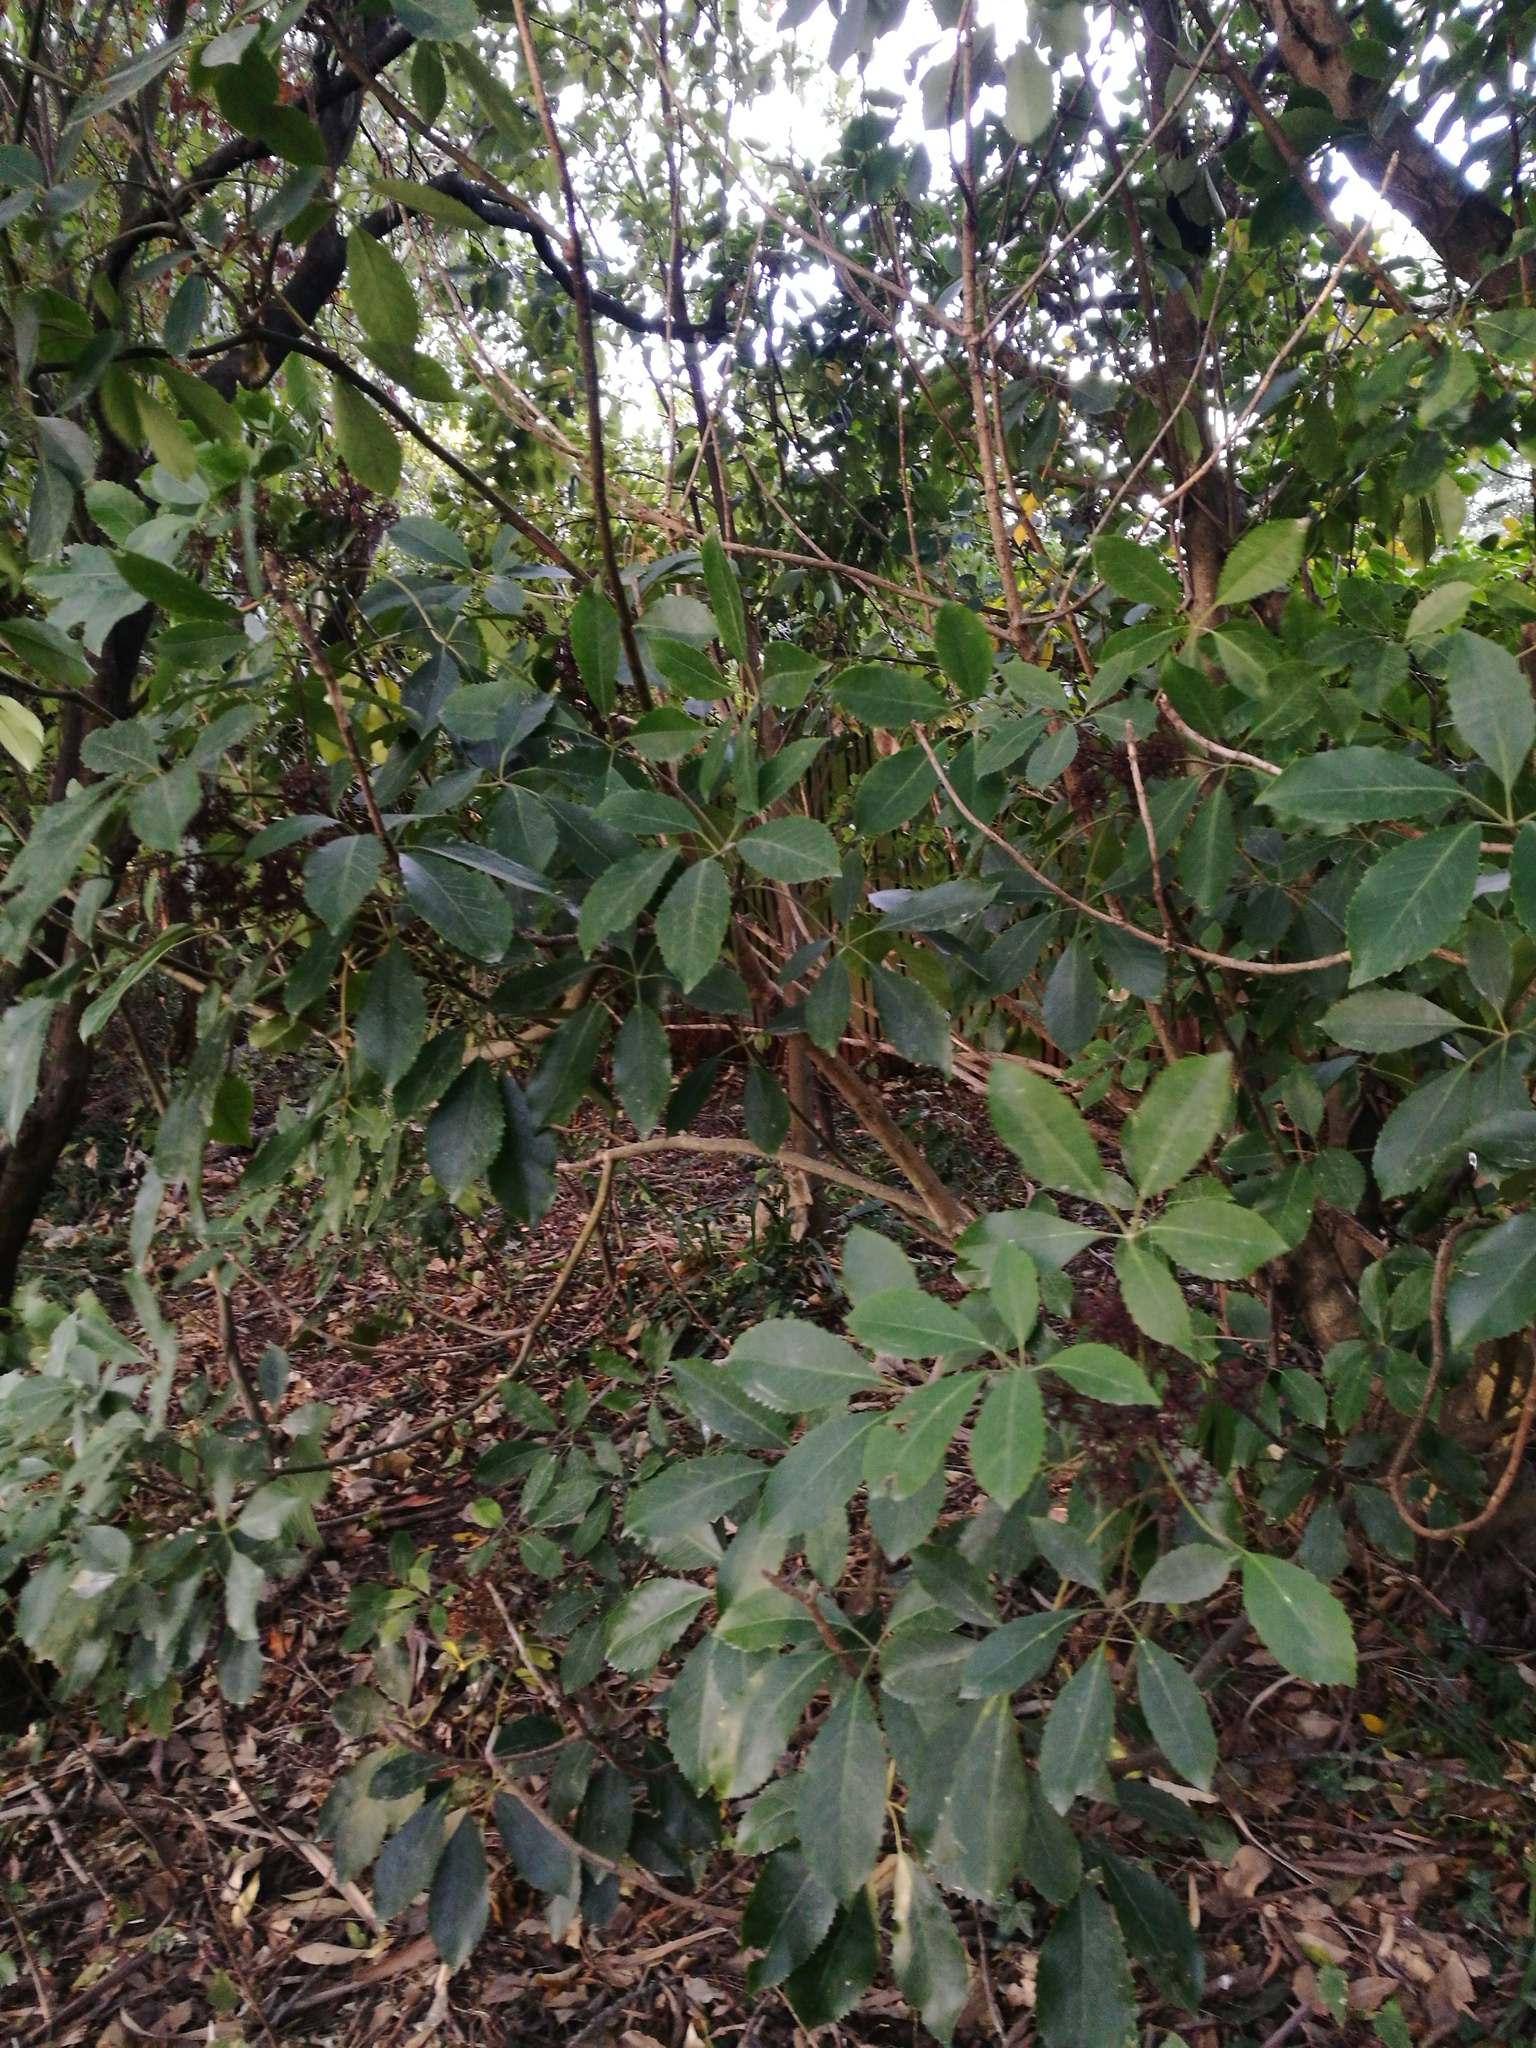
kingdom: Plantae
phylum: Tracheophyta
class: Magnoliopsida
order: Apiales
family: Araliaceae
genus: Neopanax
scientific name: Neopanax arboreus
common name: Five-fingers
